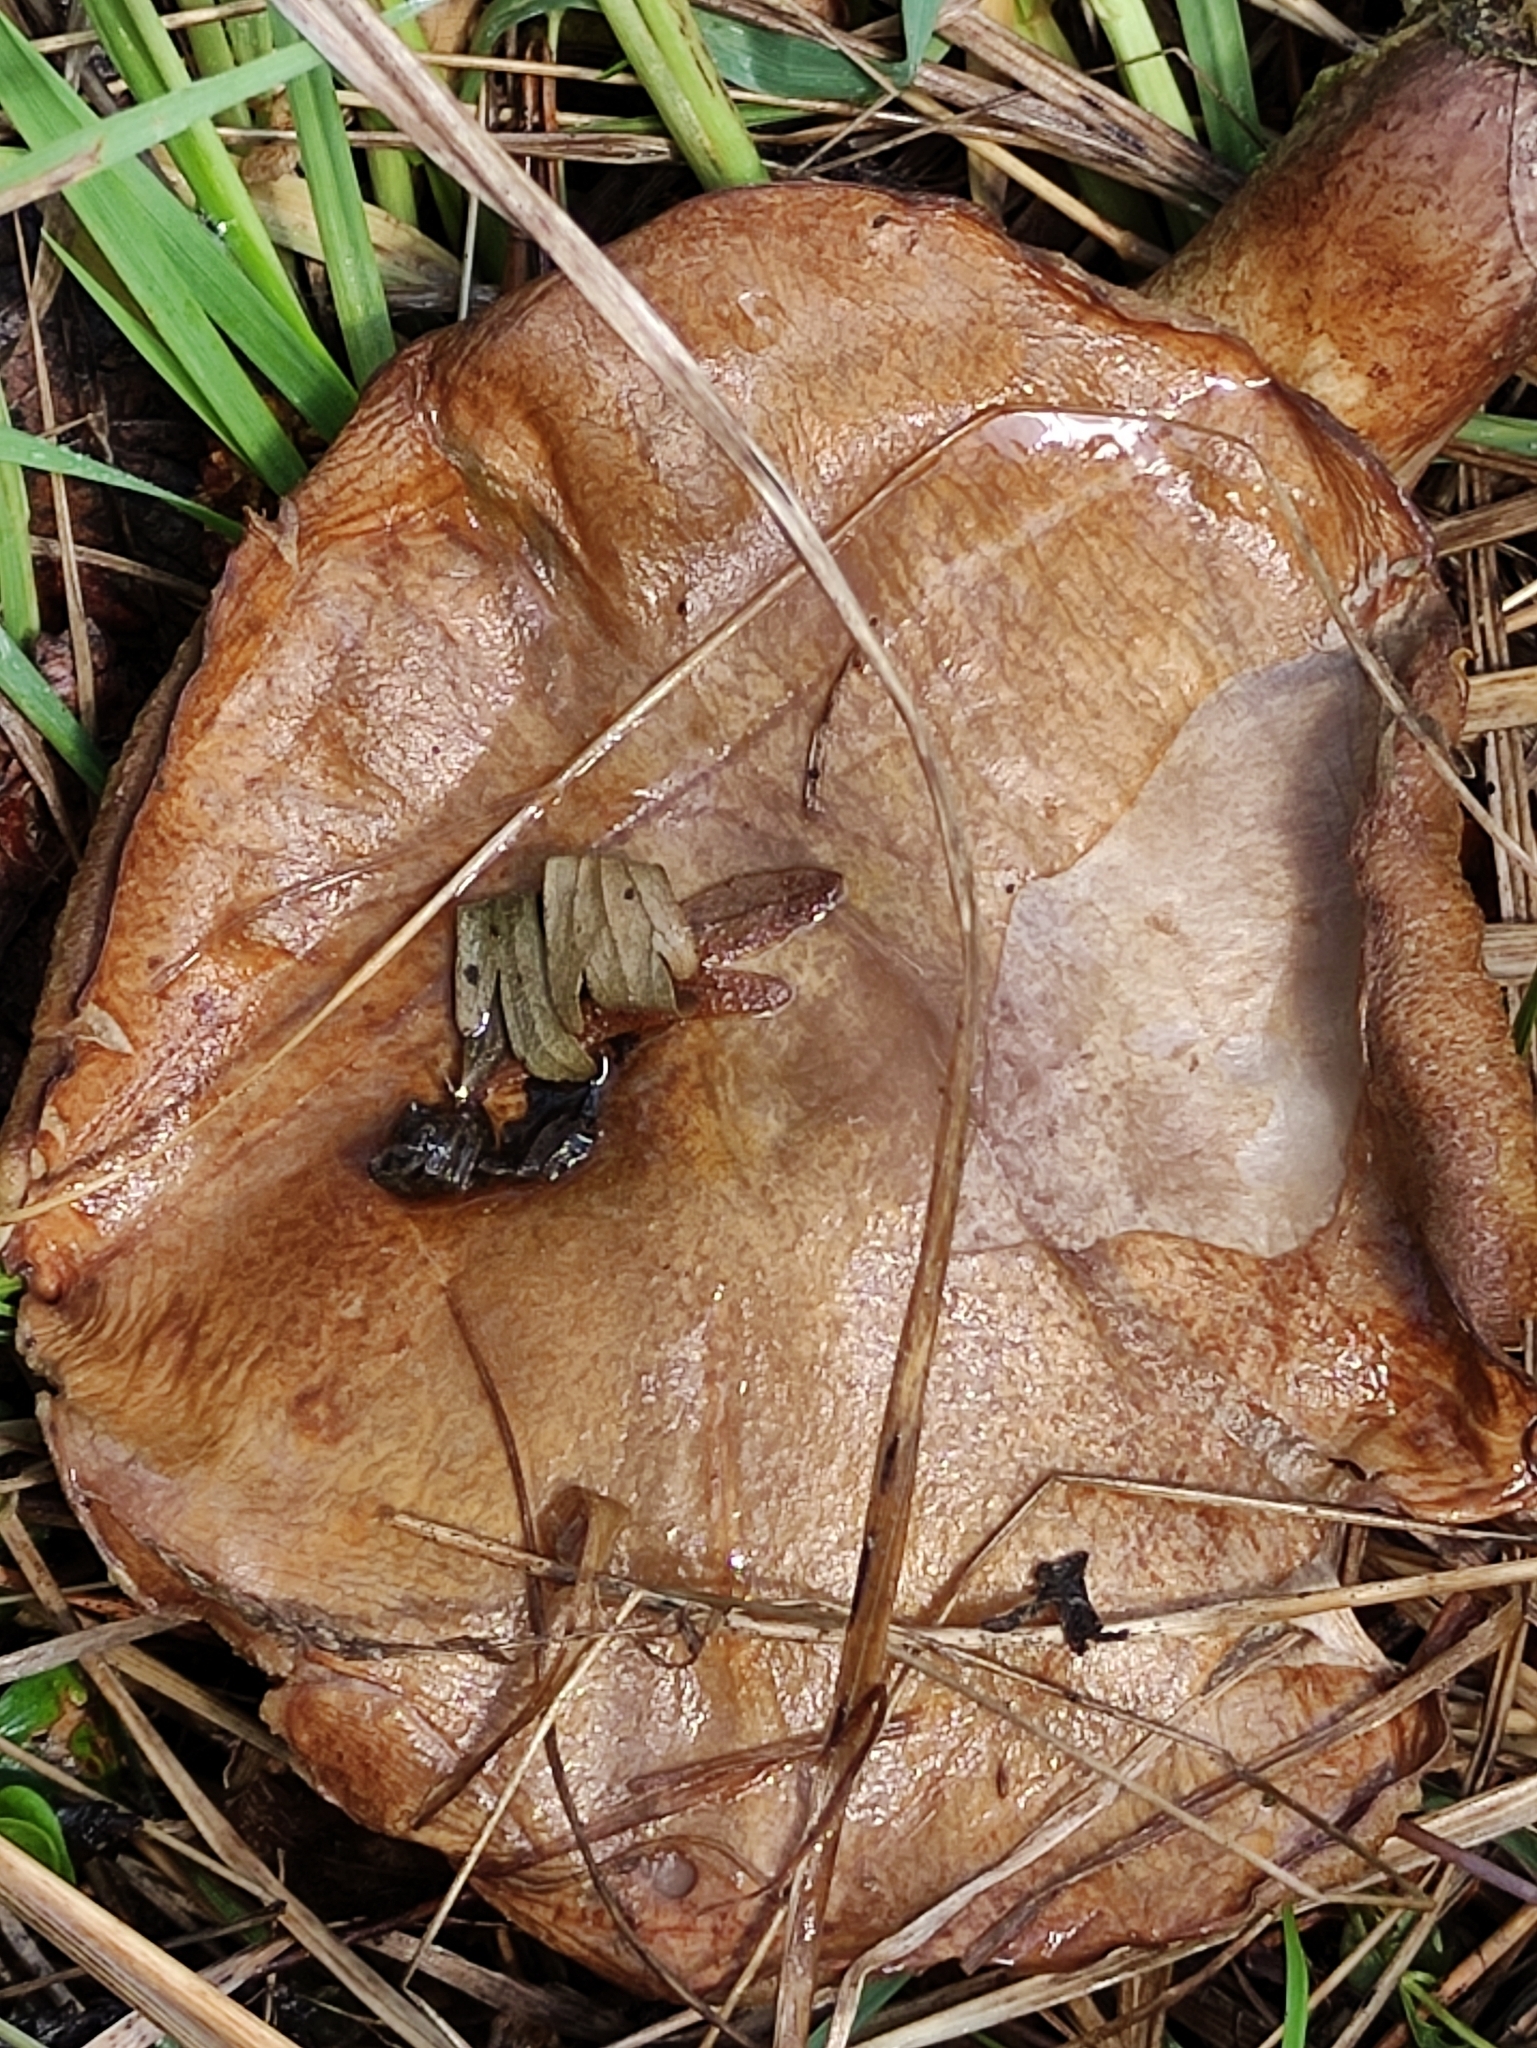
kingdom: Fungi
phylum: Basidiomycota
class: Agaricomycetes
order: Boletales
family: Suillaceae
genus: Suillus
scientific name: Suillus granulatus
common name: Weeping bolete
